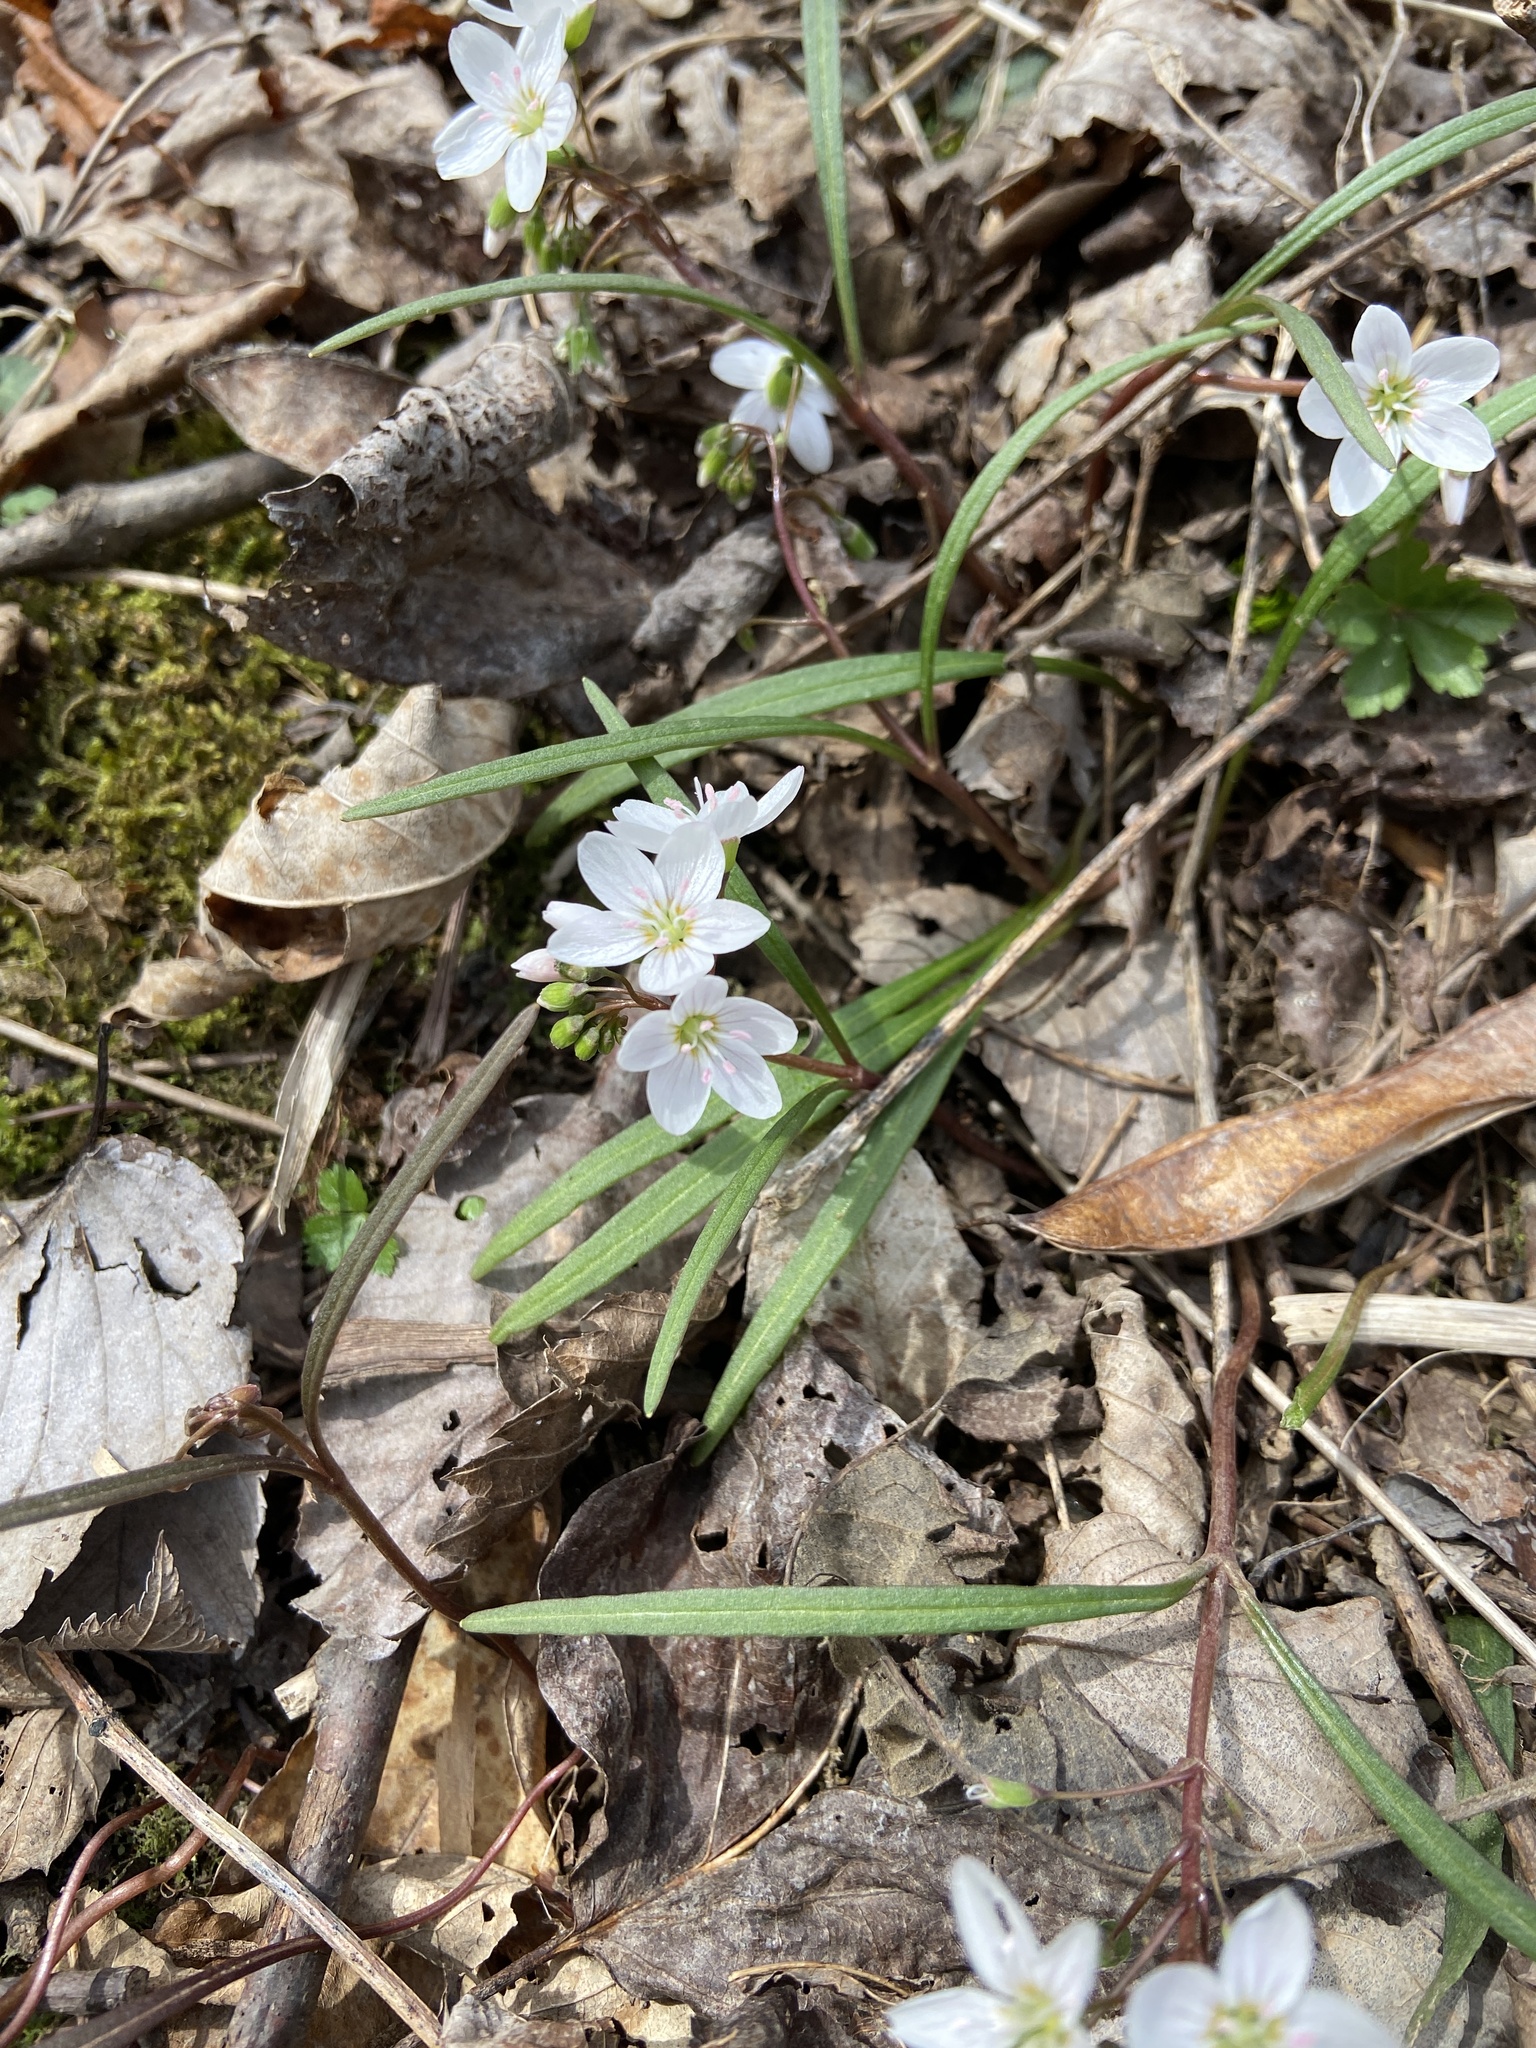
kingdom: Plantae
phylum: Tracheophyta
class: Magnoliopsida
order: Caryophyllales
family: Montiaceae
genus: Claytonia
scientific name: Claytonia virginica
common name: Virginia springbeauty
